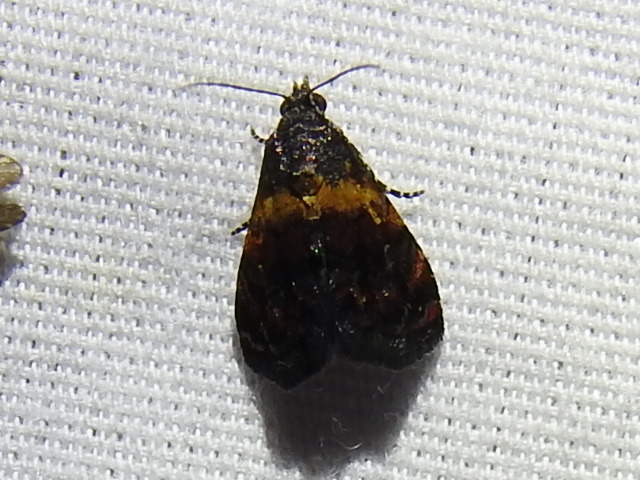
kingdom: Animalia
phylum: Arthropoda
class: Insecta
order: Lepidoptera
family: Noctuidae
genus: Tripudia
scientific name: Tripudia flavofasciata
